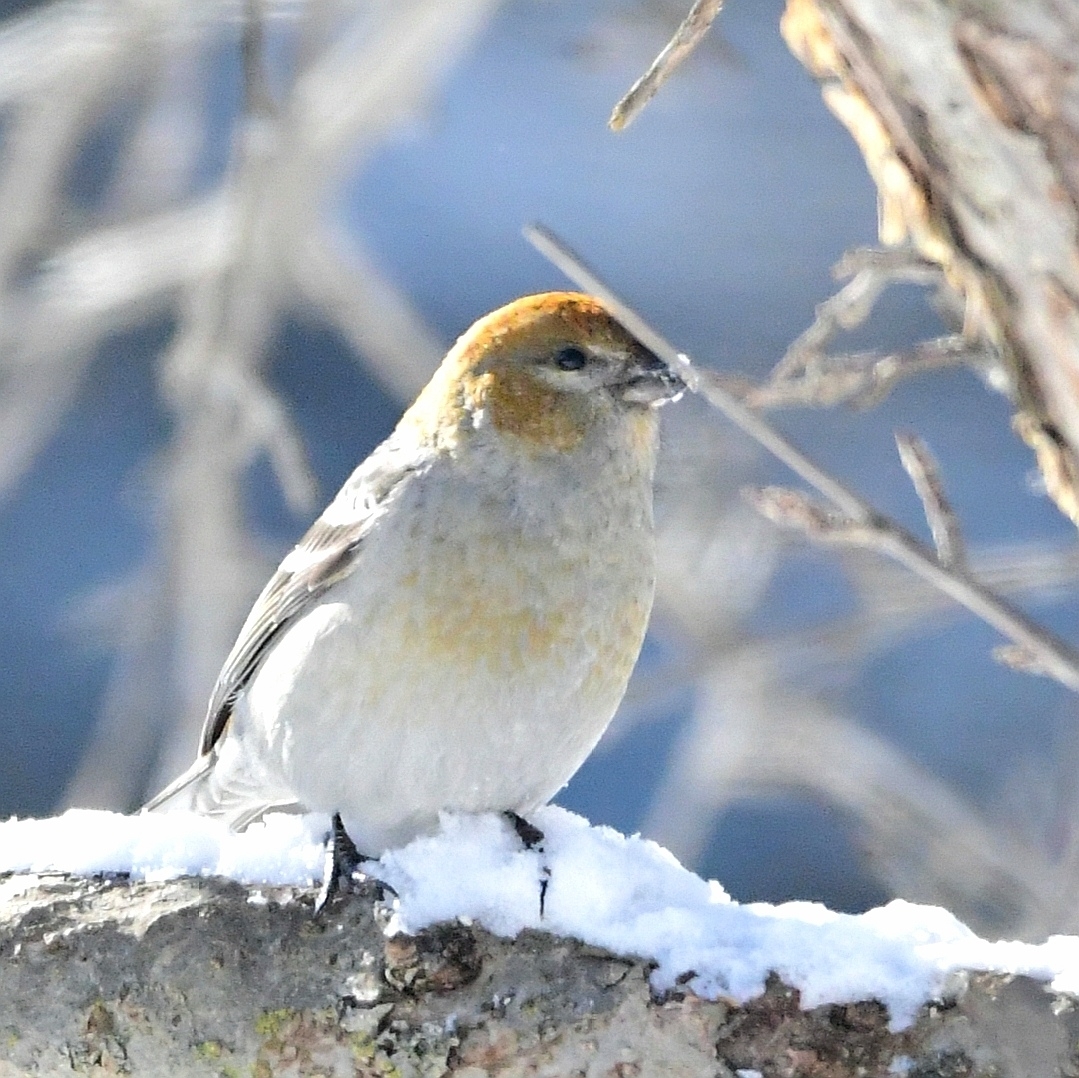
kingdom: Animalia
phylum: Chordata
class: Aves
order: Passeriformes
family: Fringillidae
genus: Pinicola
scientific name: Pinicola enucleator
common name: Pine grosbeak
